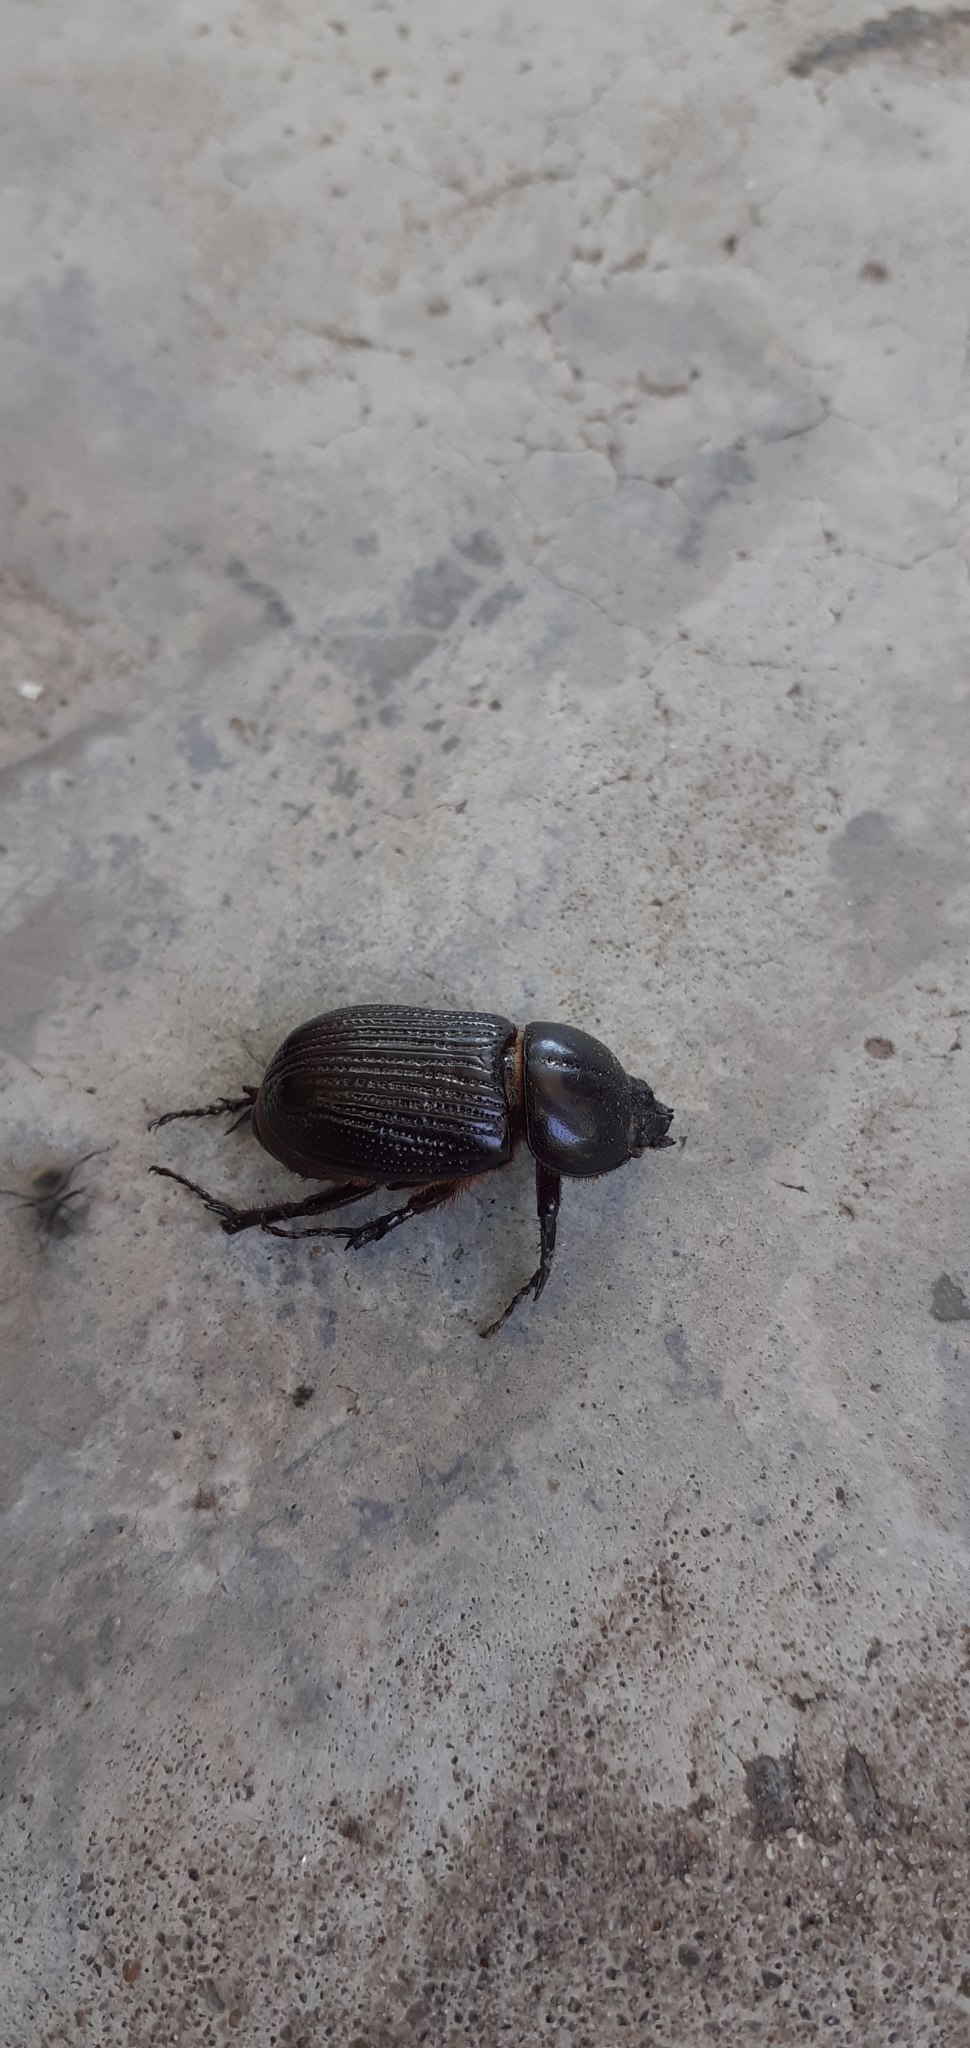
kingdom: Animalia
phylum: Arthropoda
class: Insecta
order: Coleoptera
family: Scarabaeidae
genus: Archophileurus
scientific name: Archophileurus
